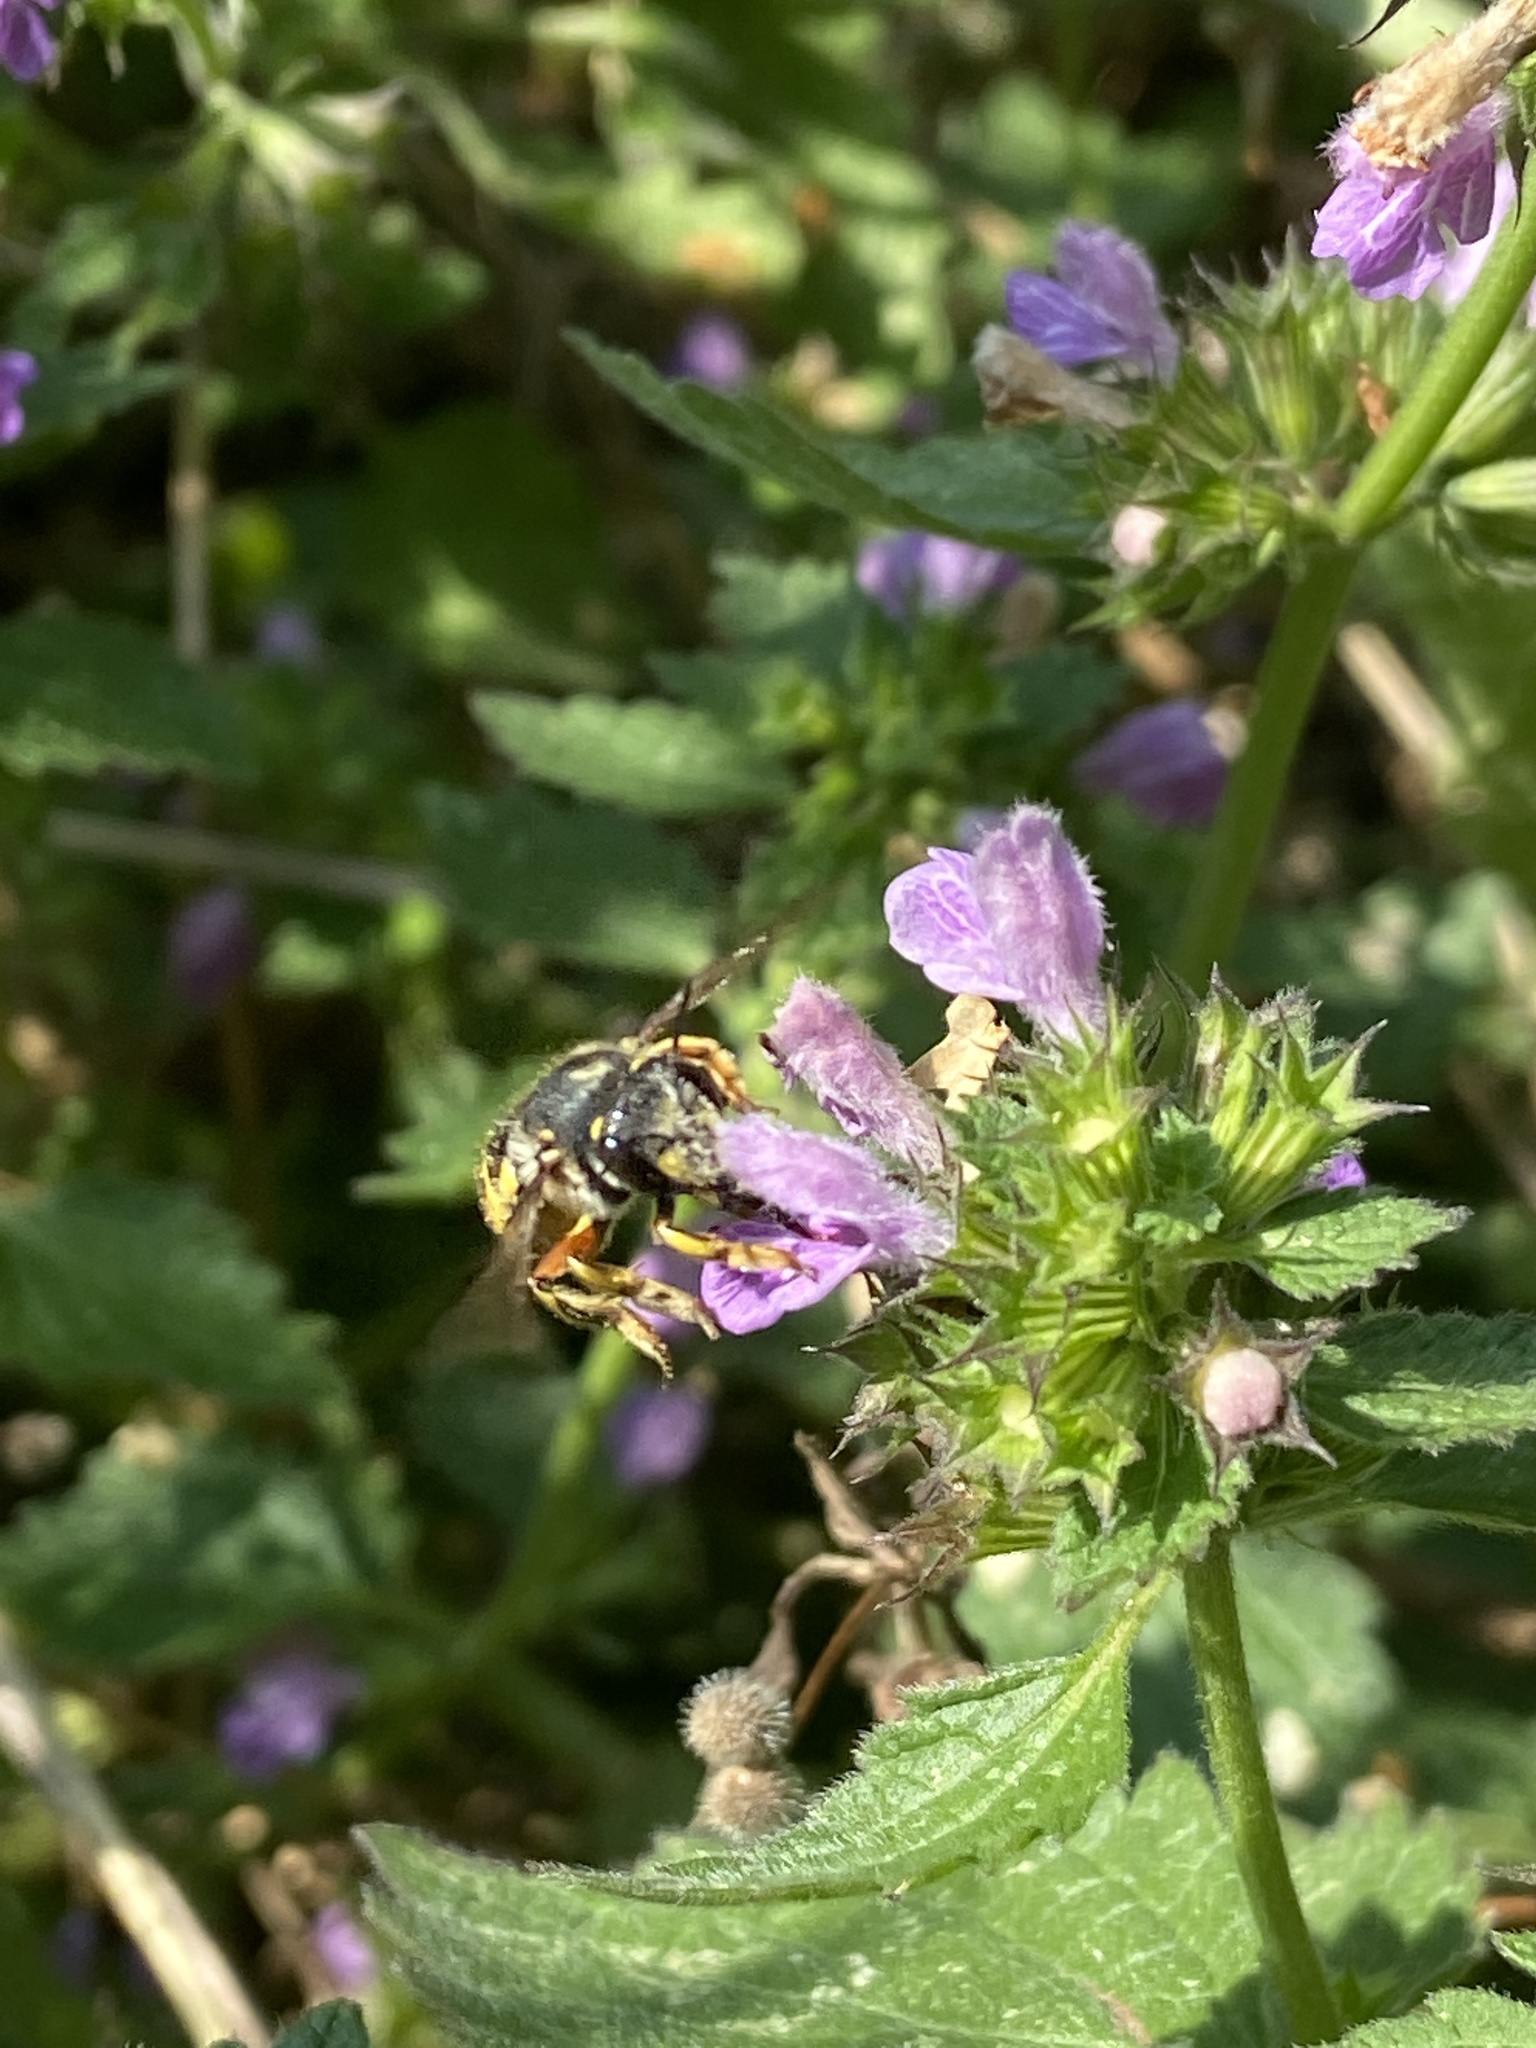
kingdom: Animalia
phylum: Arthropoda
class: Insecta
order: Hymenoptera
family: Megachilidae
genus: Anthidium
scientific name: Anthidium manicatum
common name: Wool carder bee
